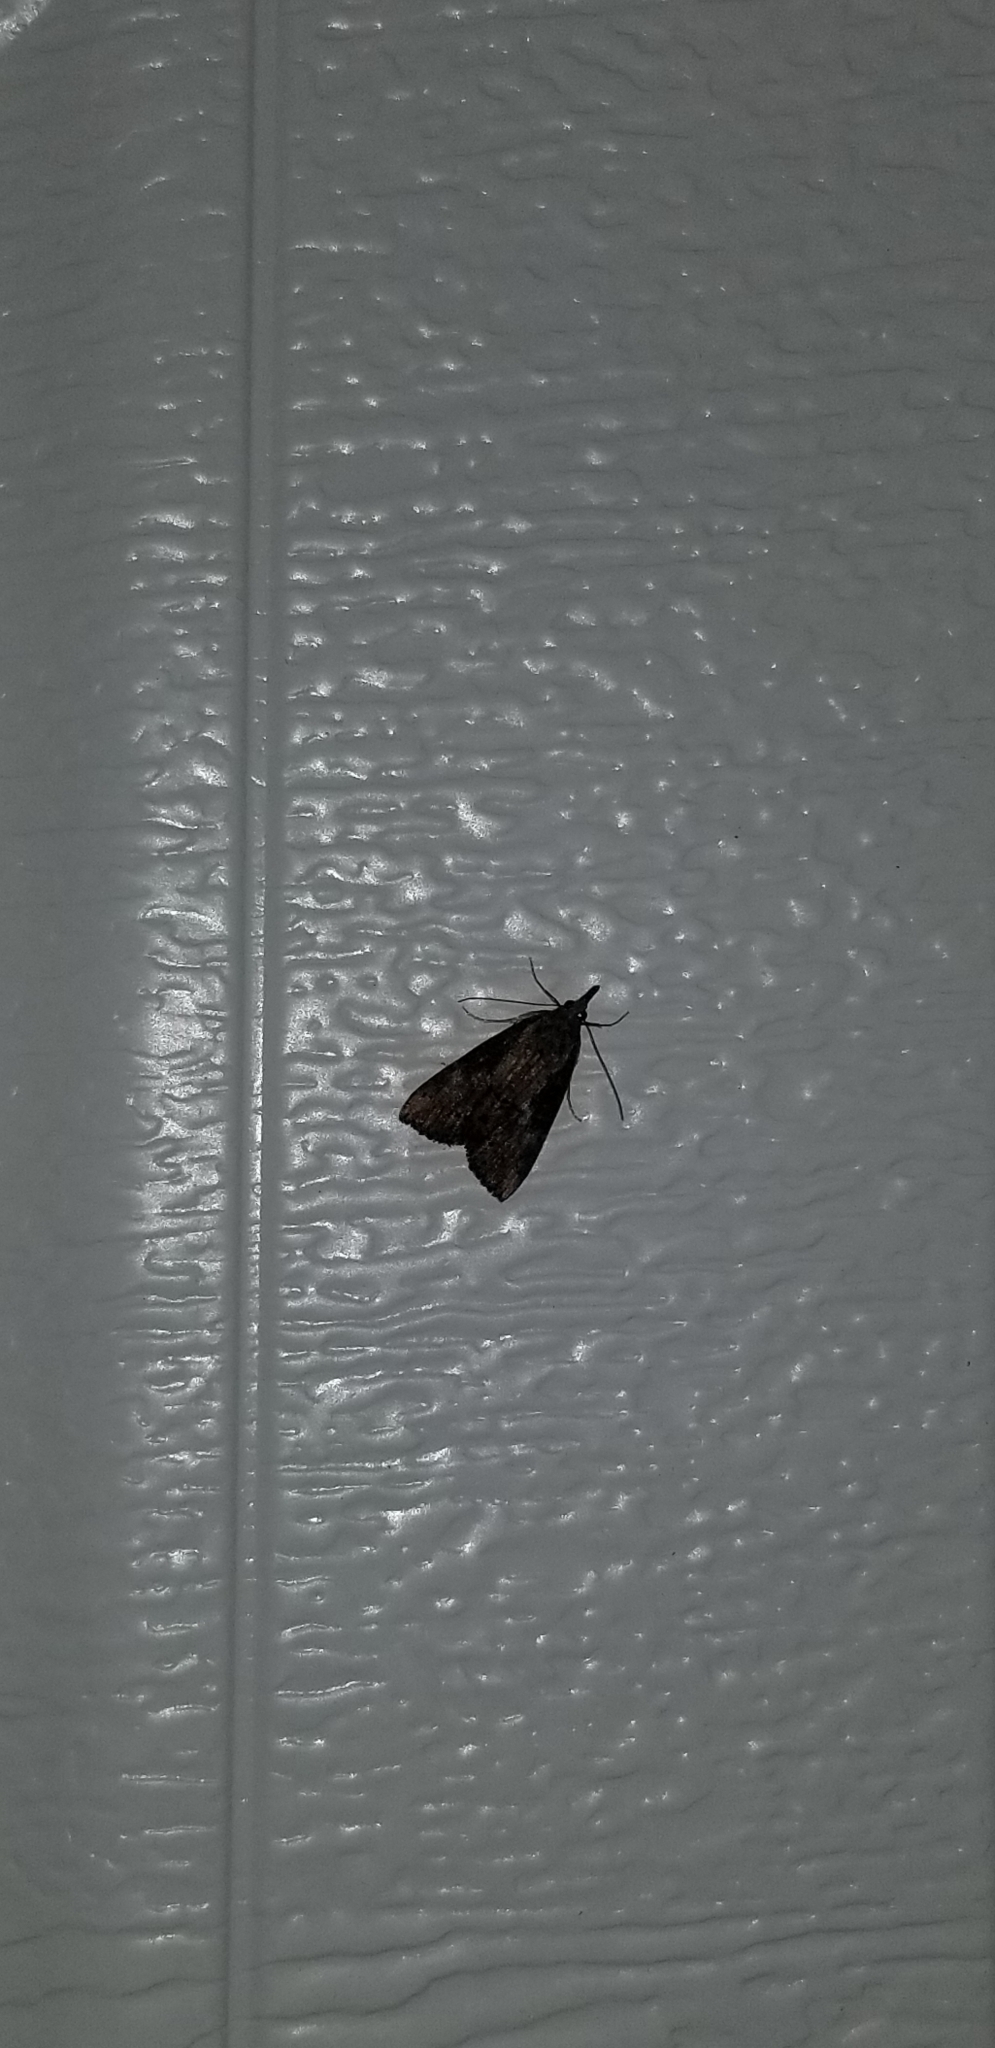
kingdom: Animalia
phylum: Arthropoda
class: Insecta
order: Lepidoptera
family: Erebidae
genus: Hypena
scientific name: Hypena scabra
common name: Green cloverworm
